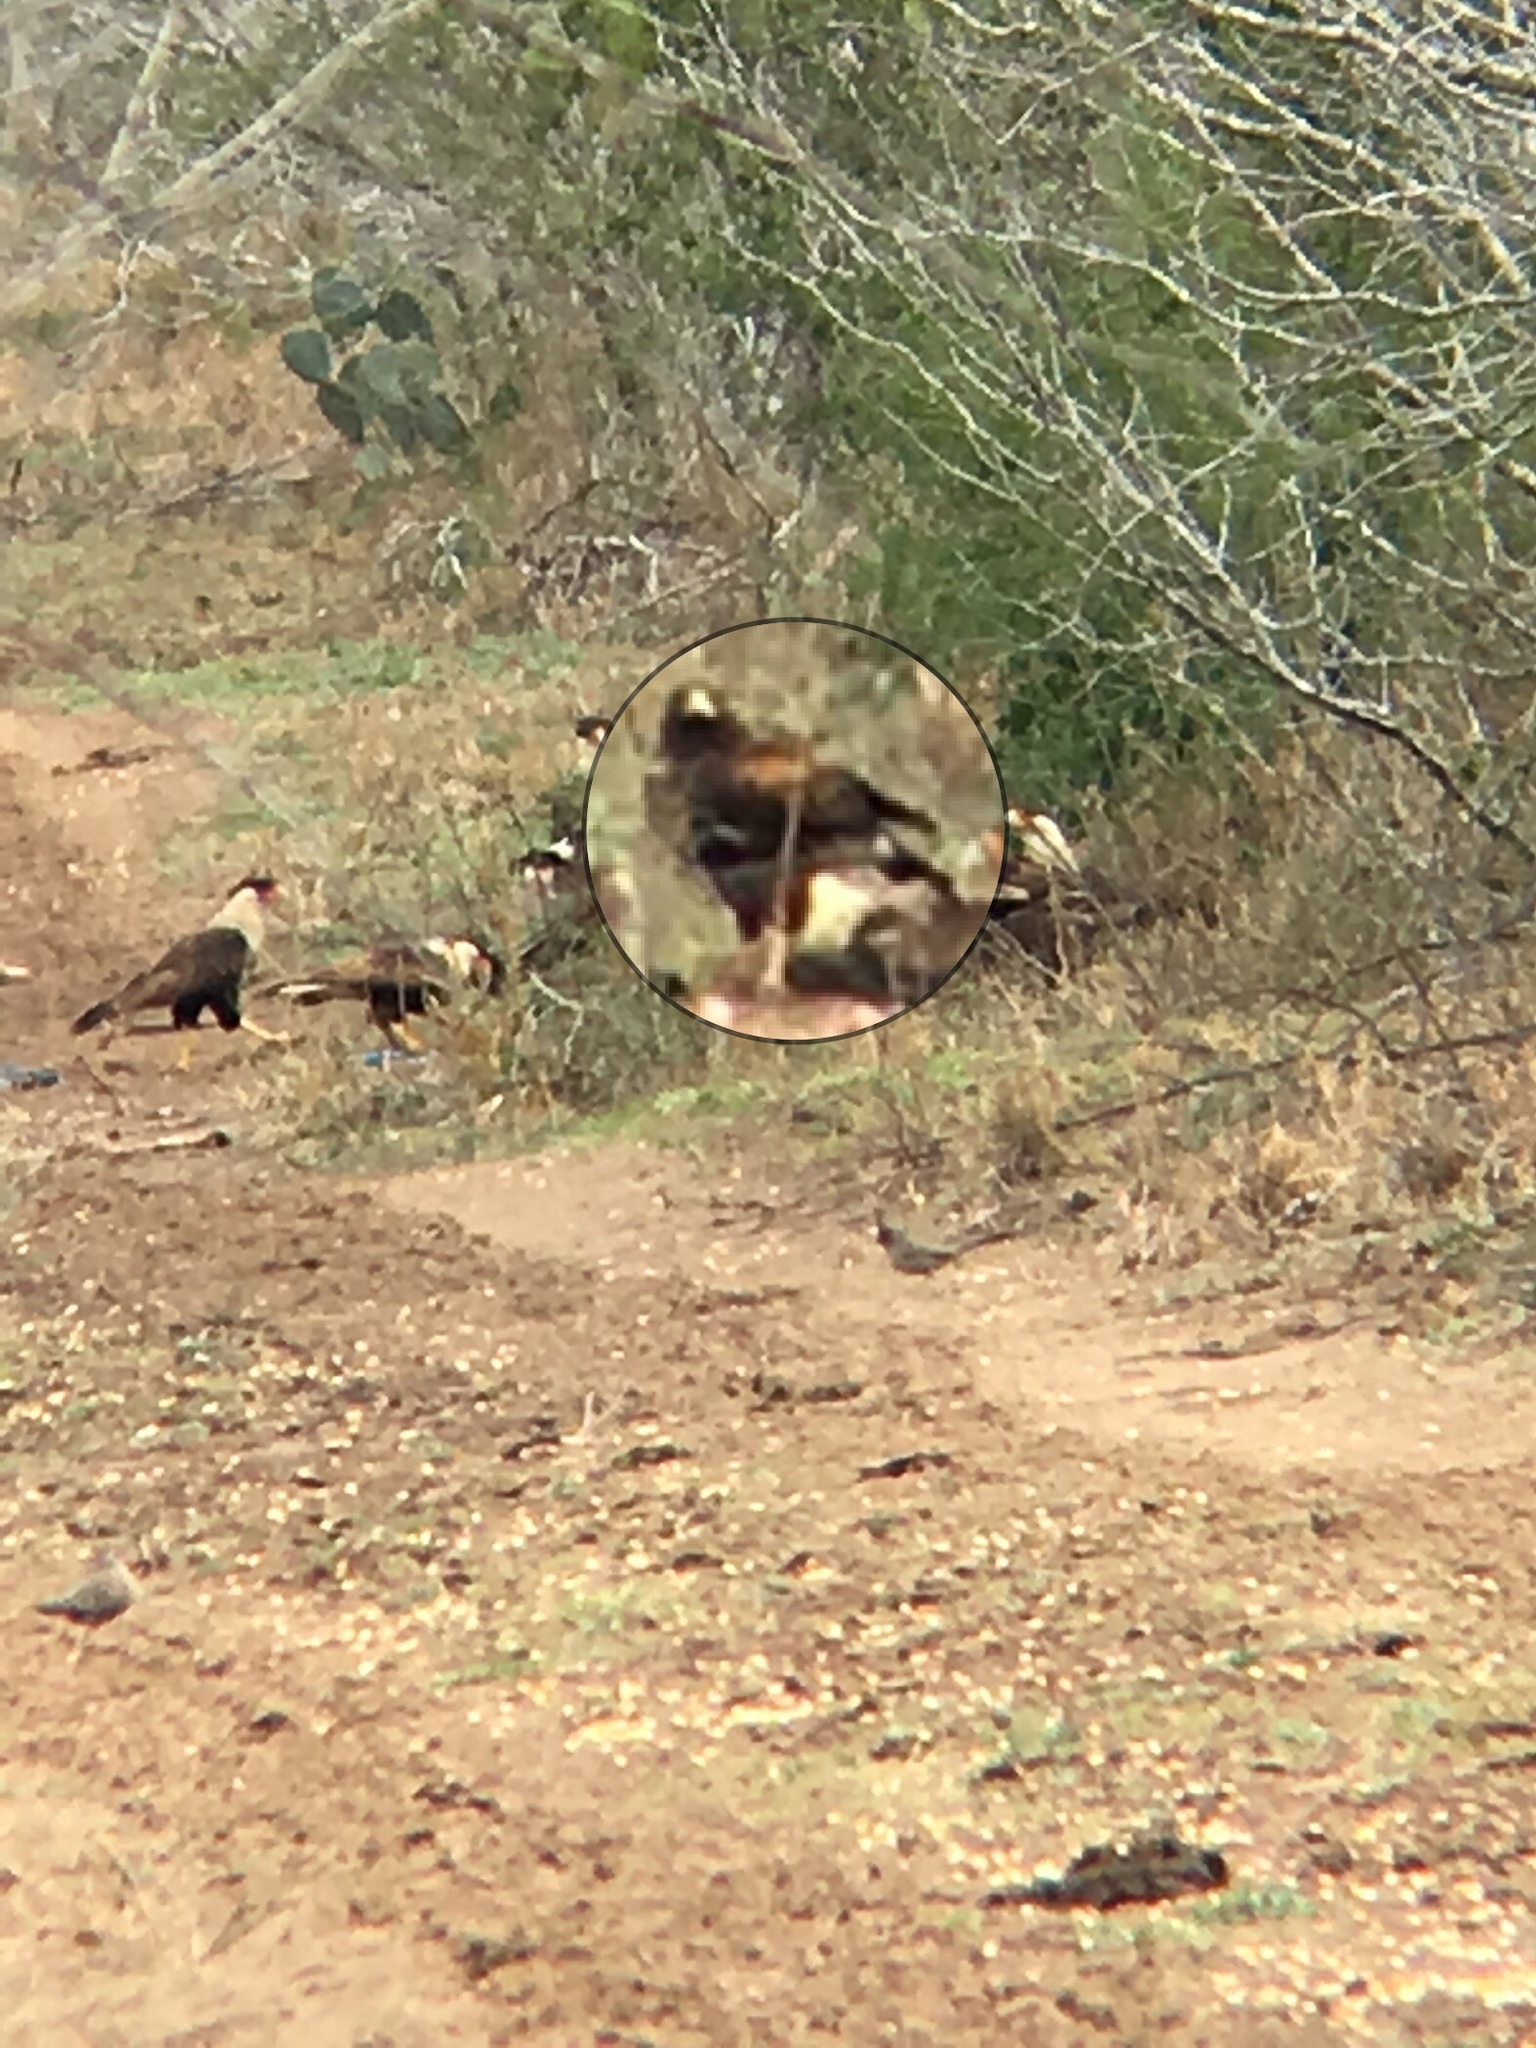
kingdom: Animalia
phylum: Chordata
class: Aves
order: Accipitriformes
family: Accipitridae
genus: Parabuteo
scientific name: Parabuteo unicinctus
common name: Harris's hawk
